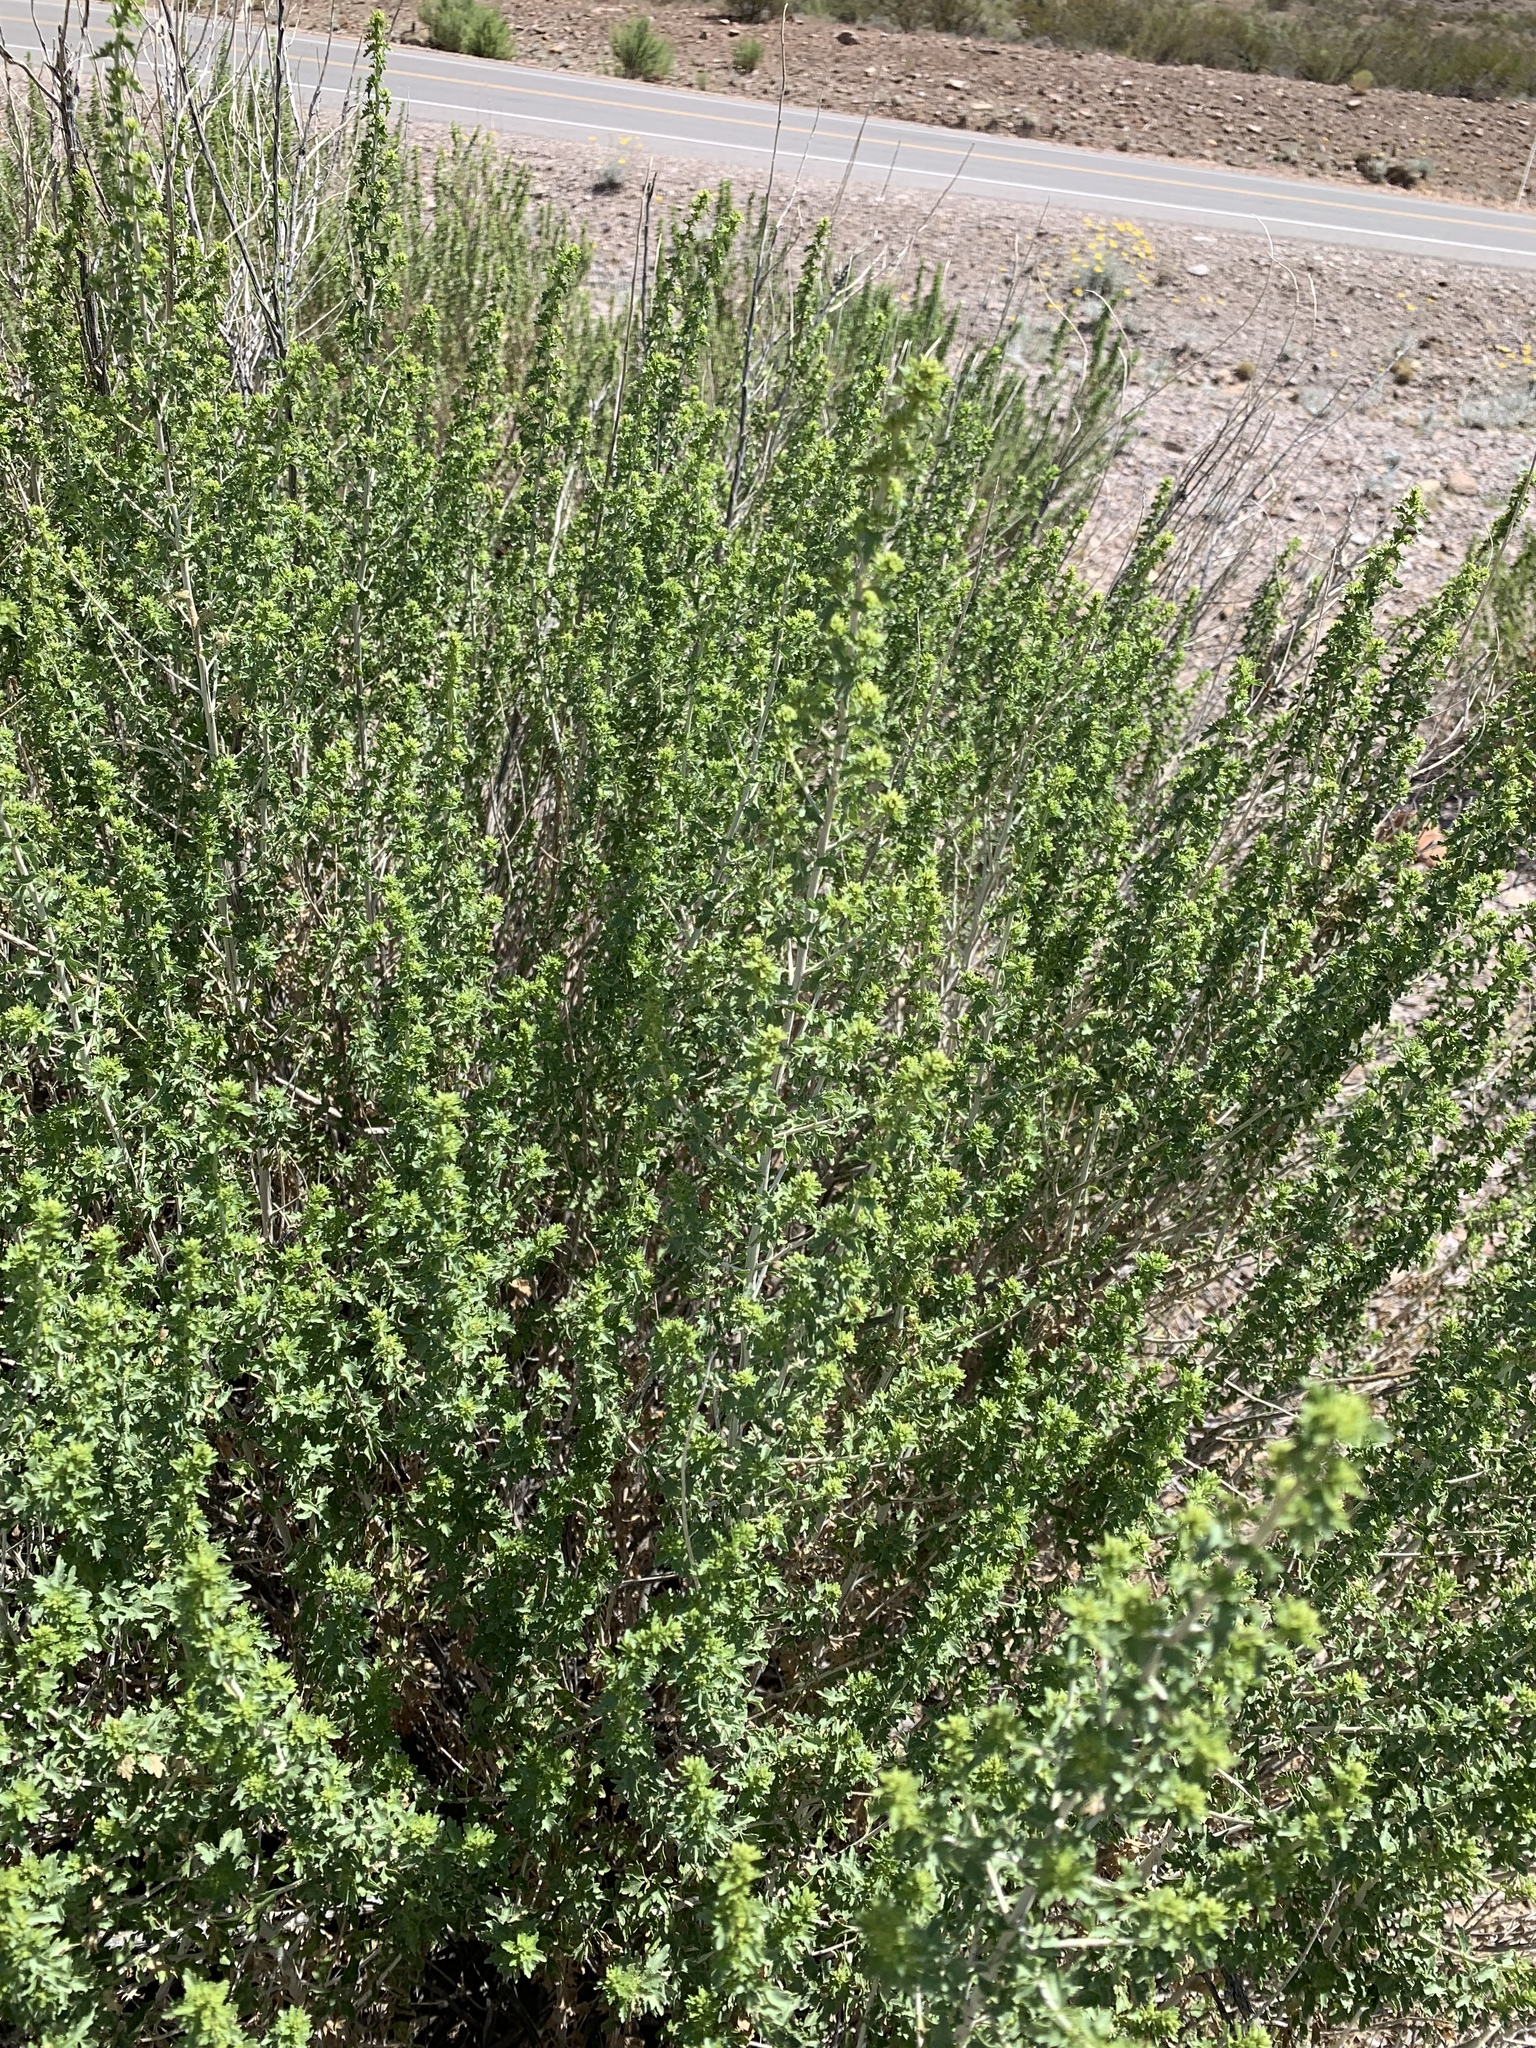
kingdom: Plantae
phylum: Tracheophyta
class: Magnoliopsida
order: Asterales
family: Asteraceae
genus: Brickellia
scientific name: Brickellia laciniata
